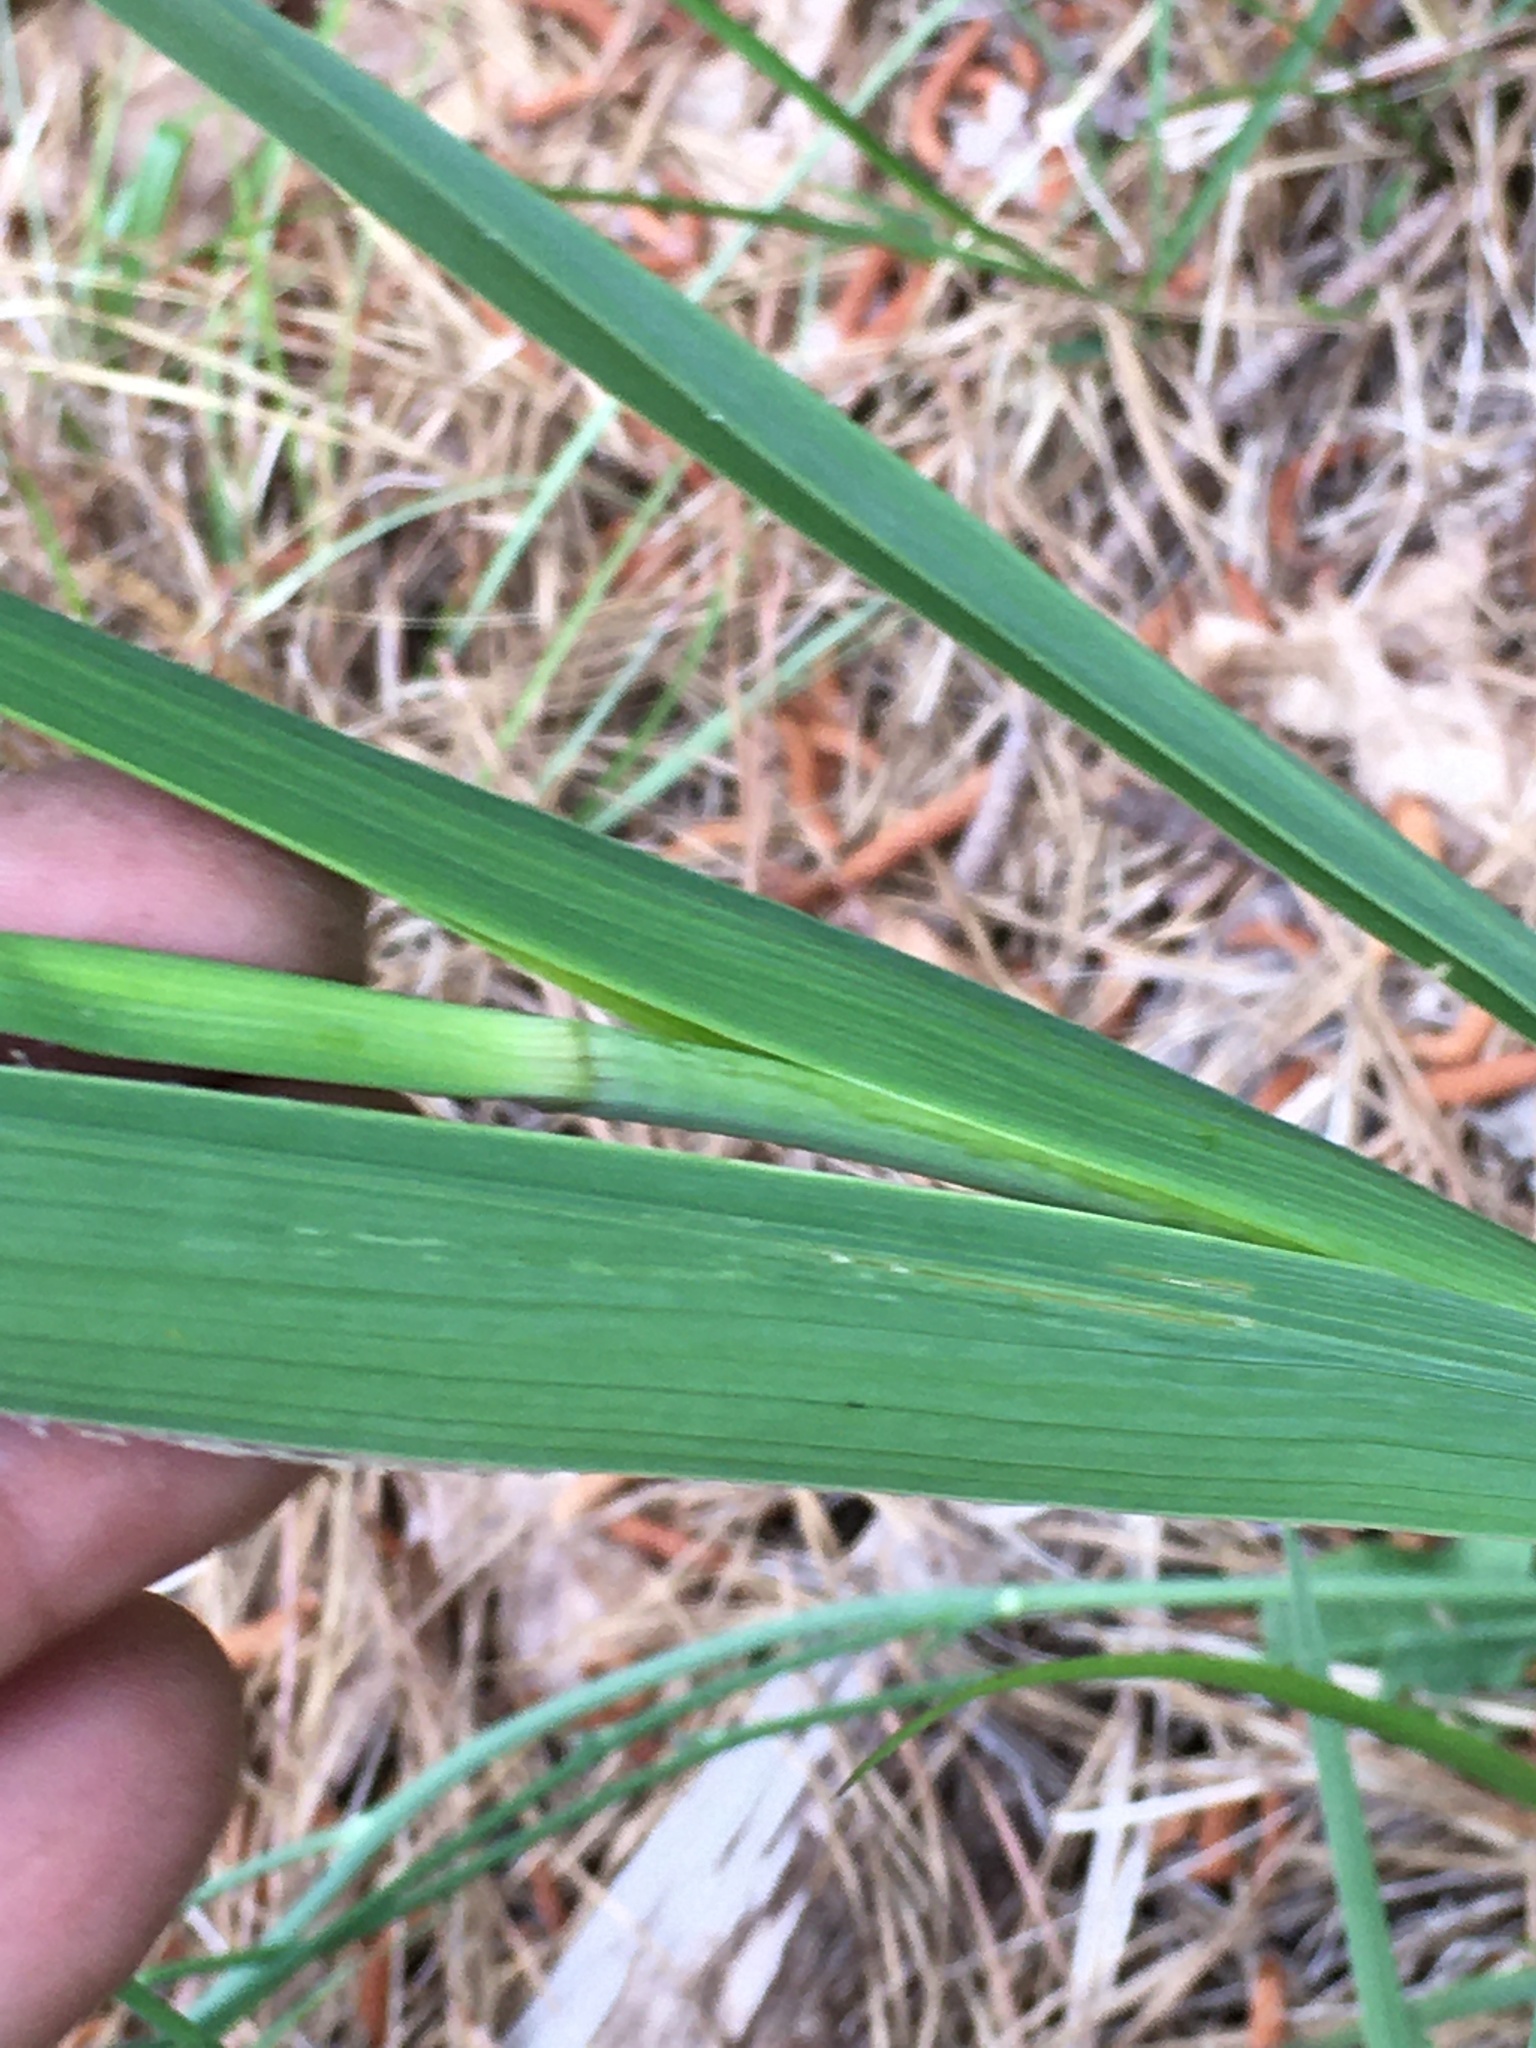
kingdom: Plantae
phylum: Tracheophyta
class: Liliopsida
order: Asparagales
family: Iridaceae
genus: Gladiolus
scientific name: Gladiolus italicus
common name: Field gladiolus
